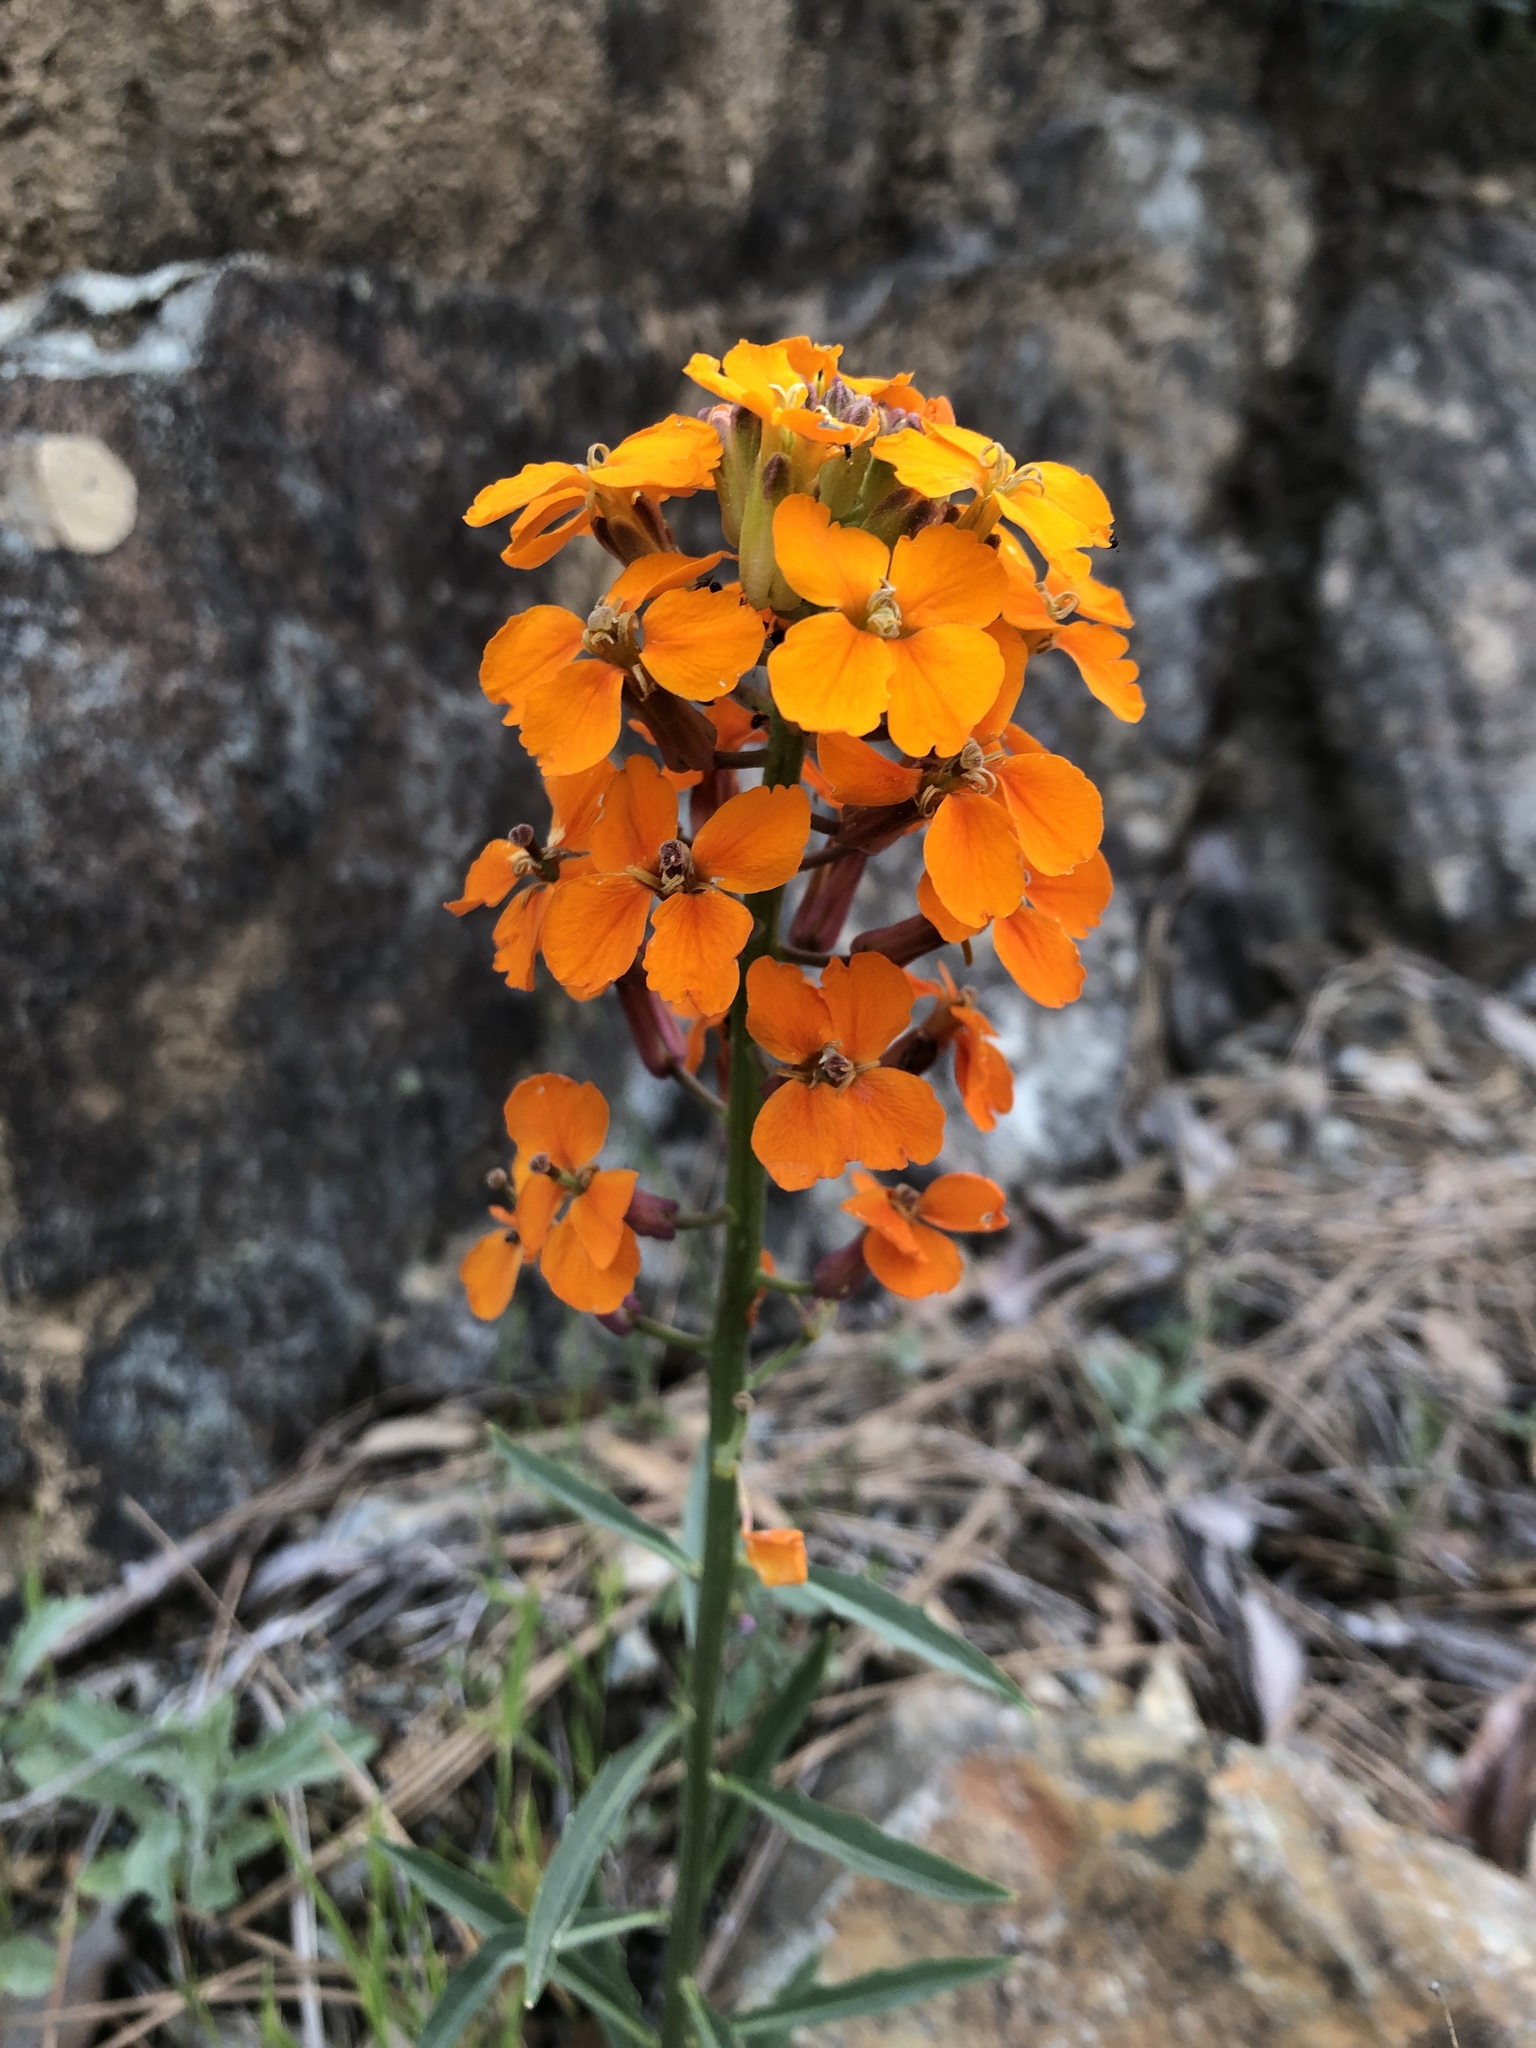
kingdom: Plantae
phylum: Tracheophyta
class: Magnoliopsida
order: Brassicales
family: Brassicaceae
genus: Erysimum
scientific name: Erysimum capitatum
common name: Western wallflower
